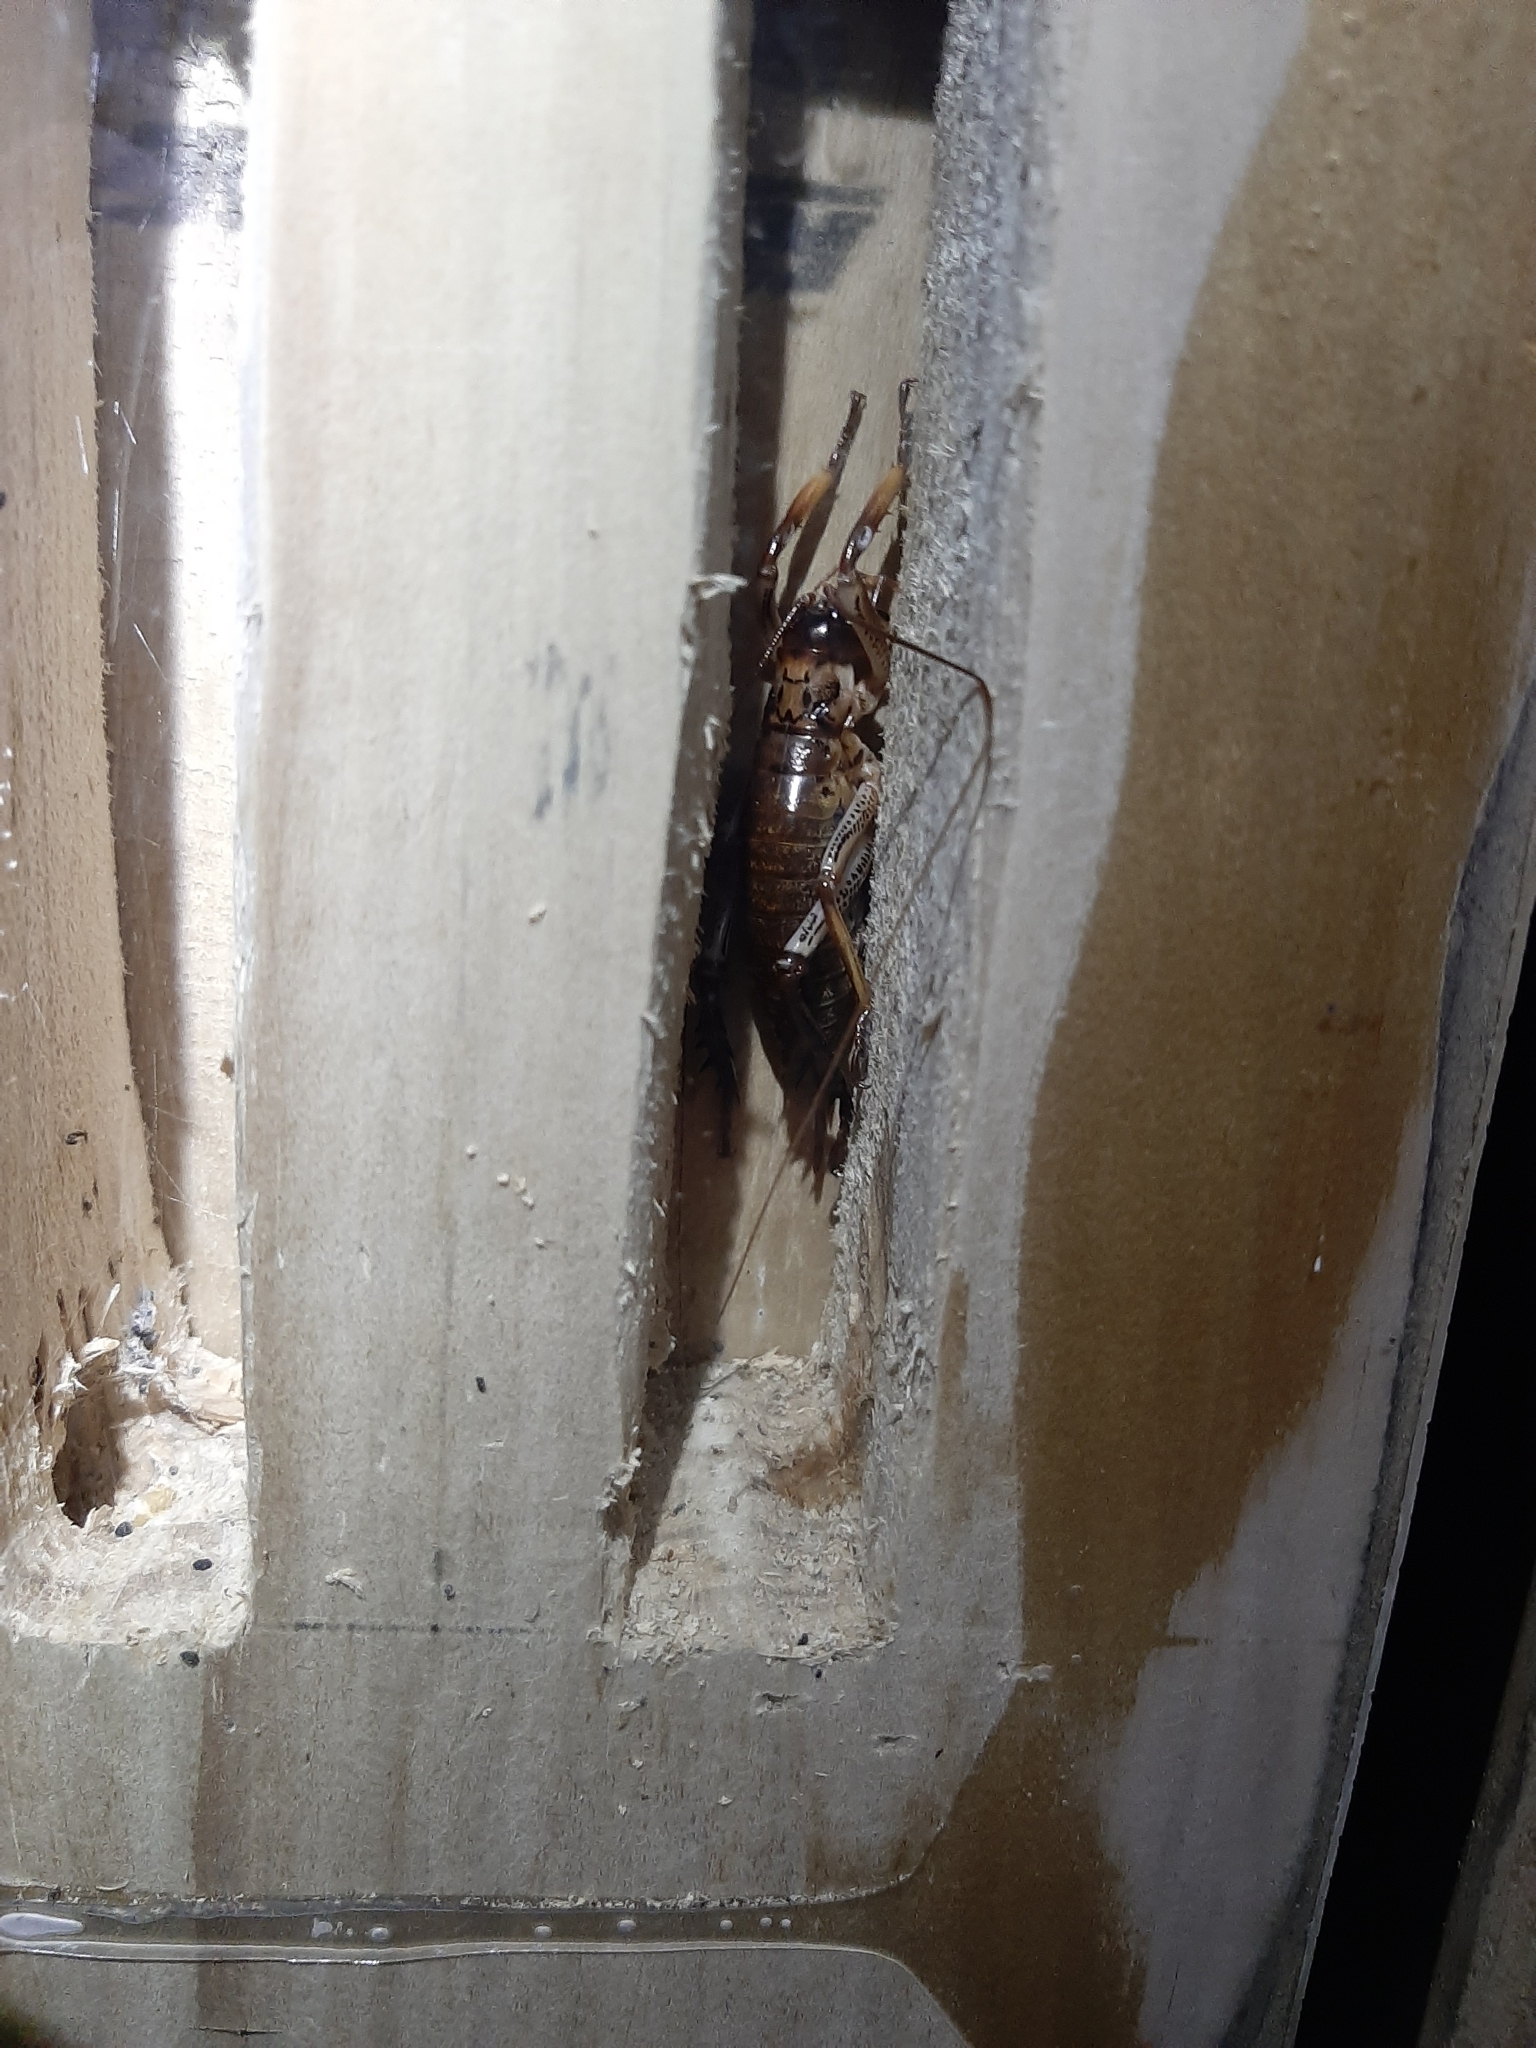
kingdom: Animalia
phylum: Arthropoda
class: Insecta
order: Orthoptera
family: Anostostomatidae
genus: Hemideina
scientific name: Hemideina thoracica
